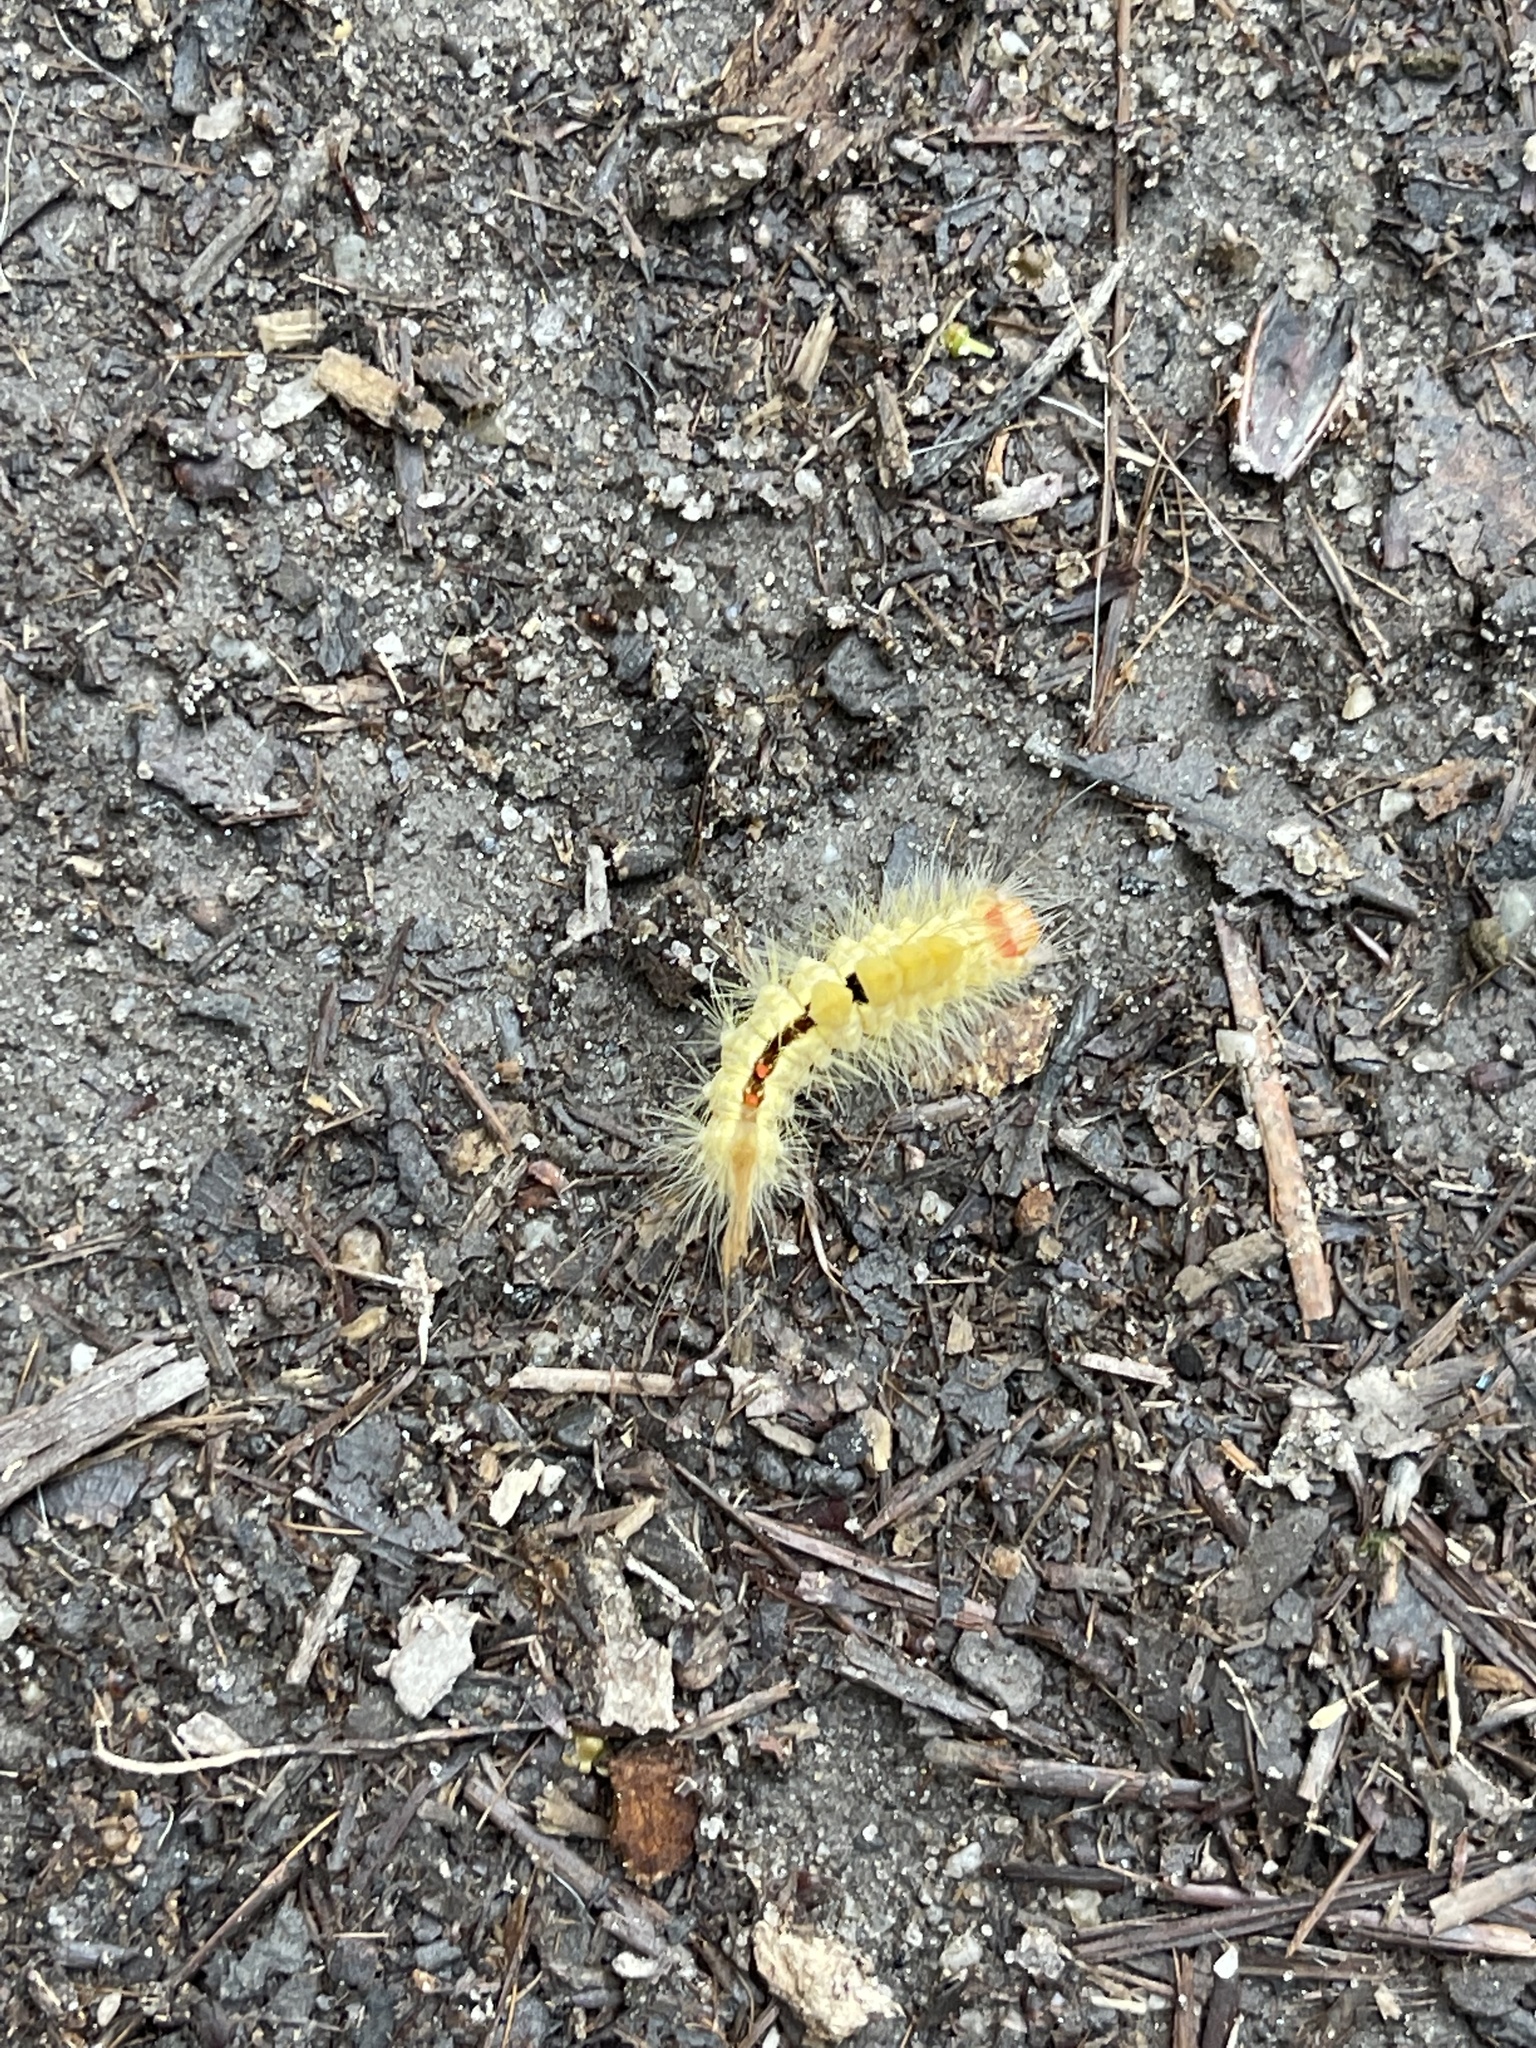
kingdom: Animalia
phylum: Arthropoda
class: Insecta
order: Lepidoptera
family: Erebidae
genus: Orgyia
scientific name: Orgyia leucostigma
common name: White-marked tussock moth
